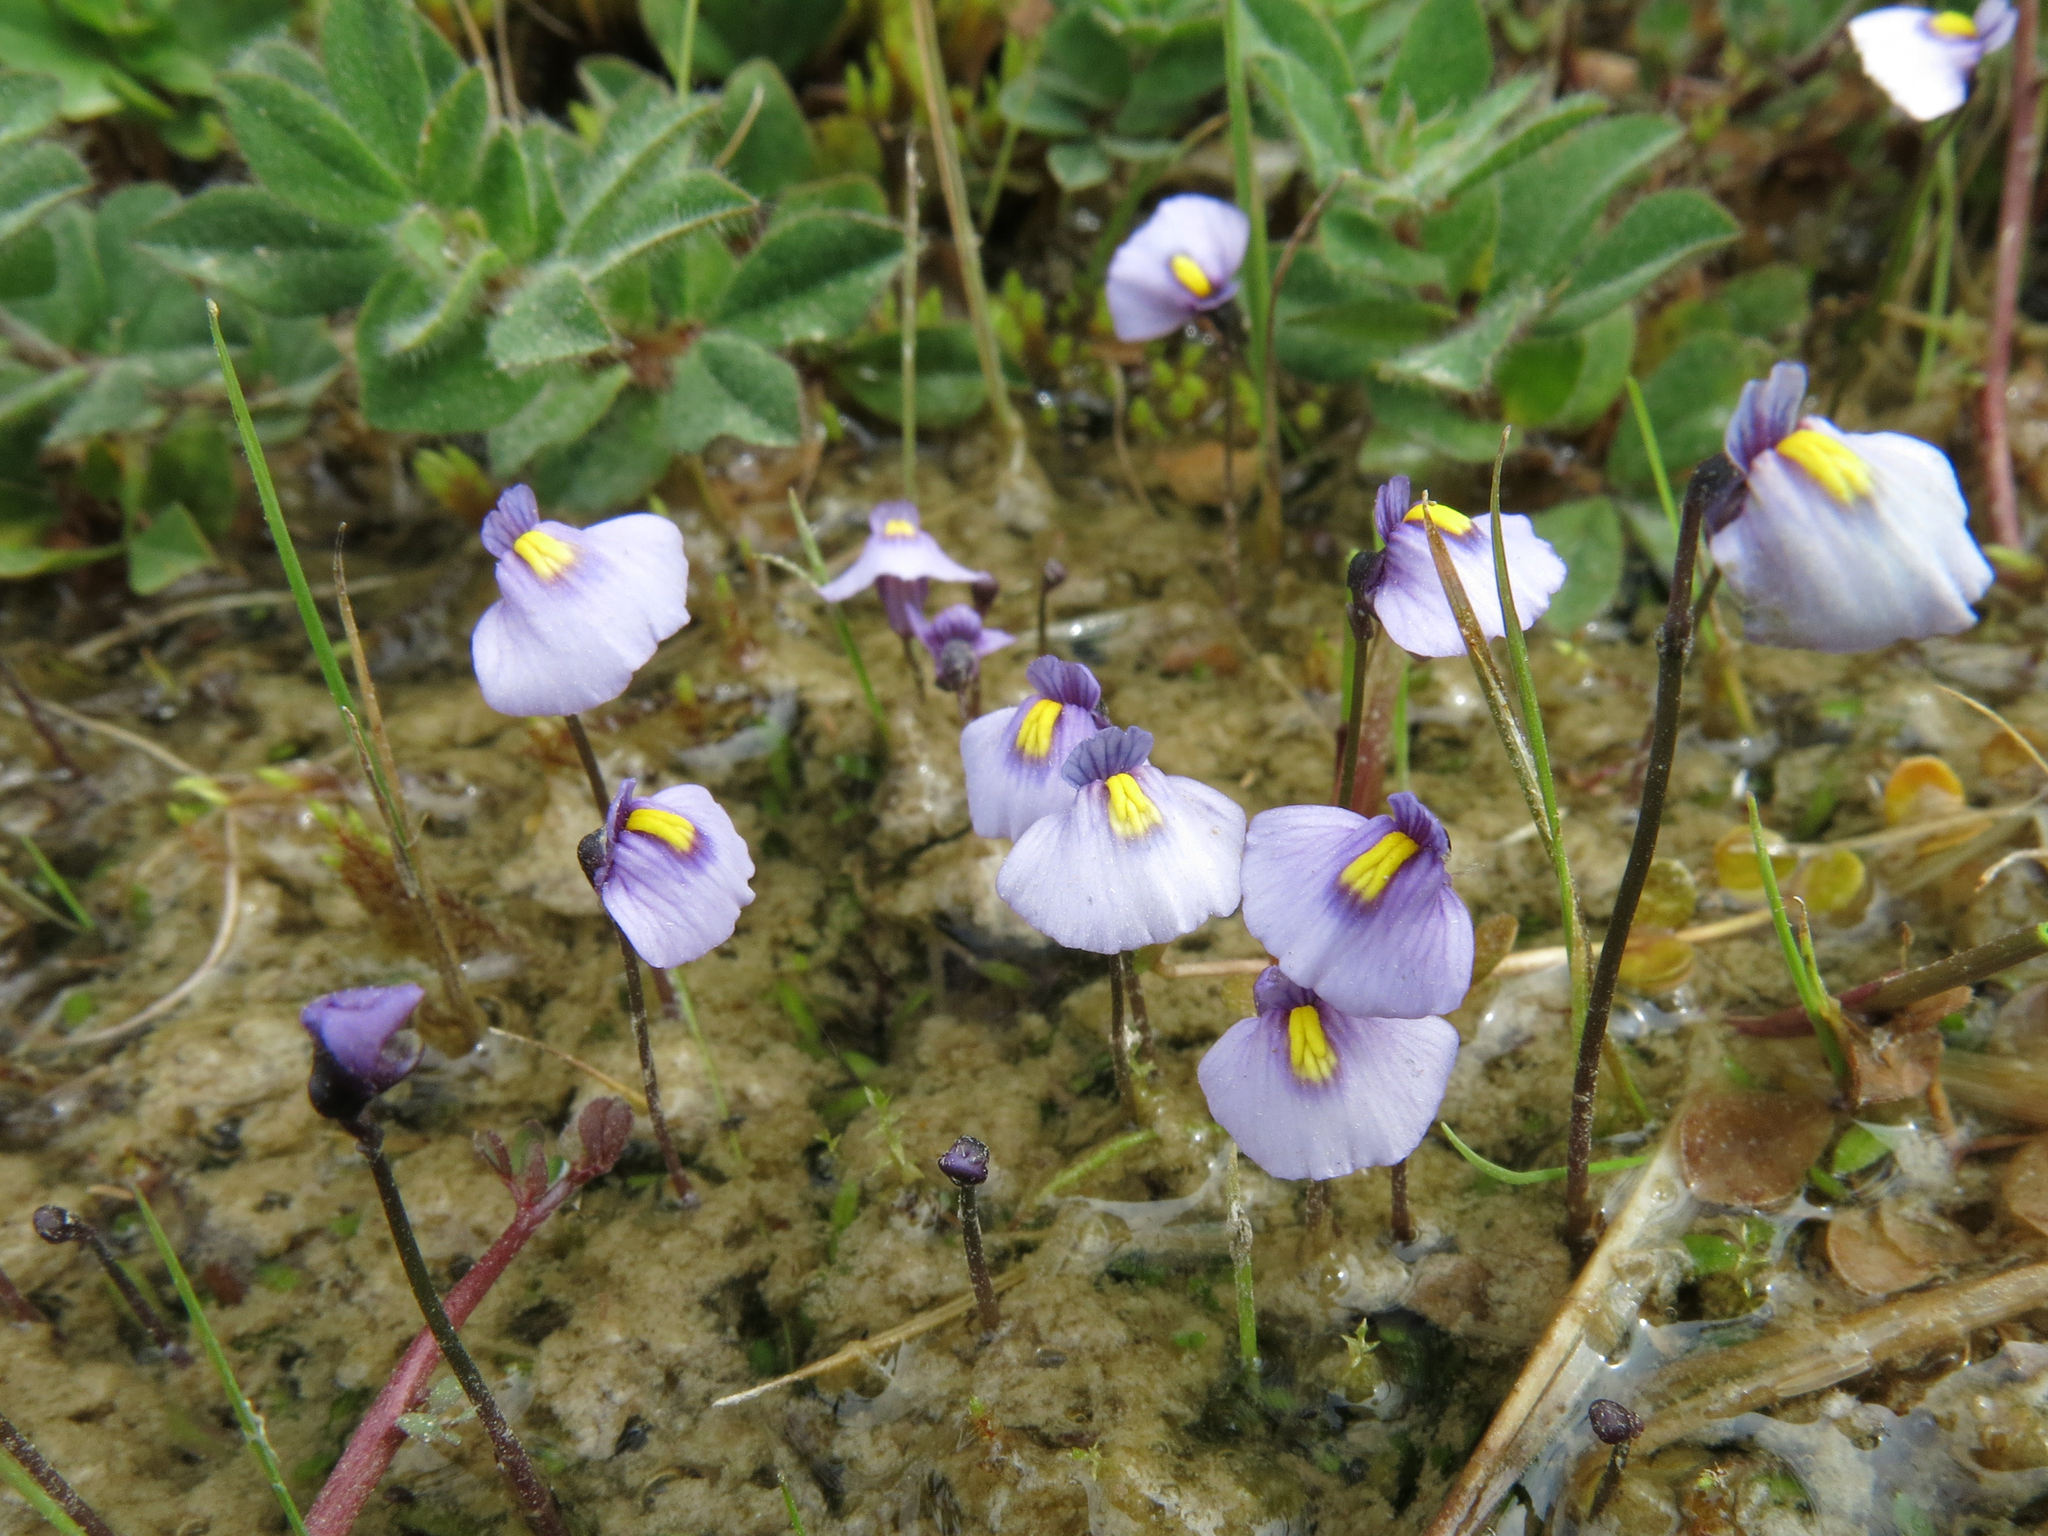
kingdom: Plantae
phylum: Tracheophyta
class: Magnoliopsida
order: Lamiales
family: Lentibulariaceae
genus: Utricularia
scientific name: Utricularia dichotoma
